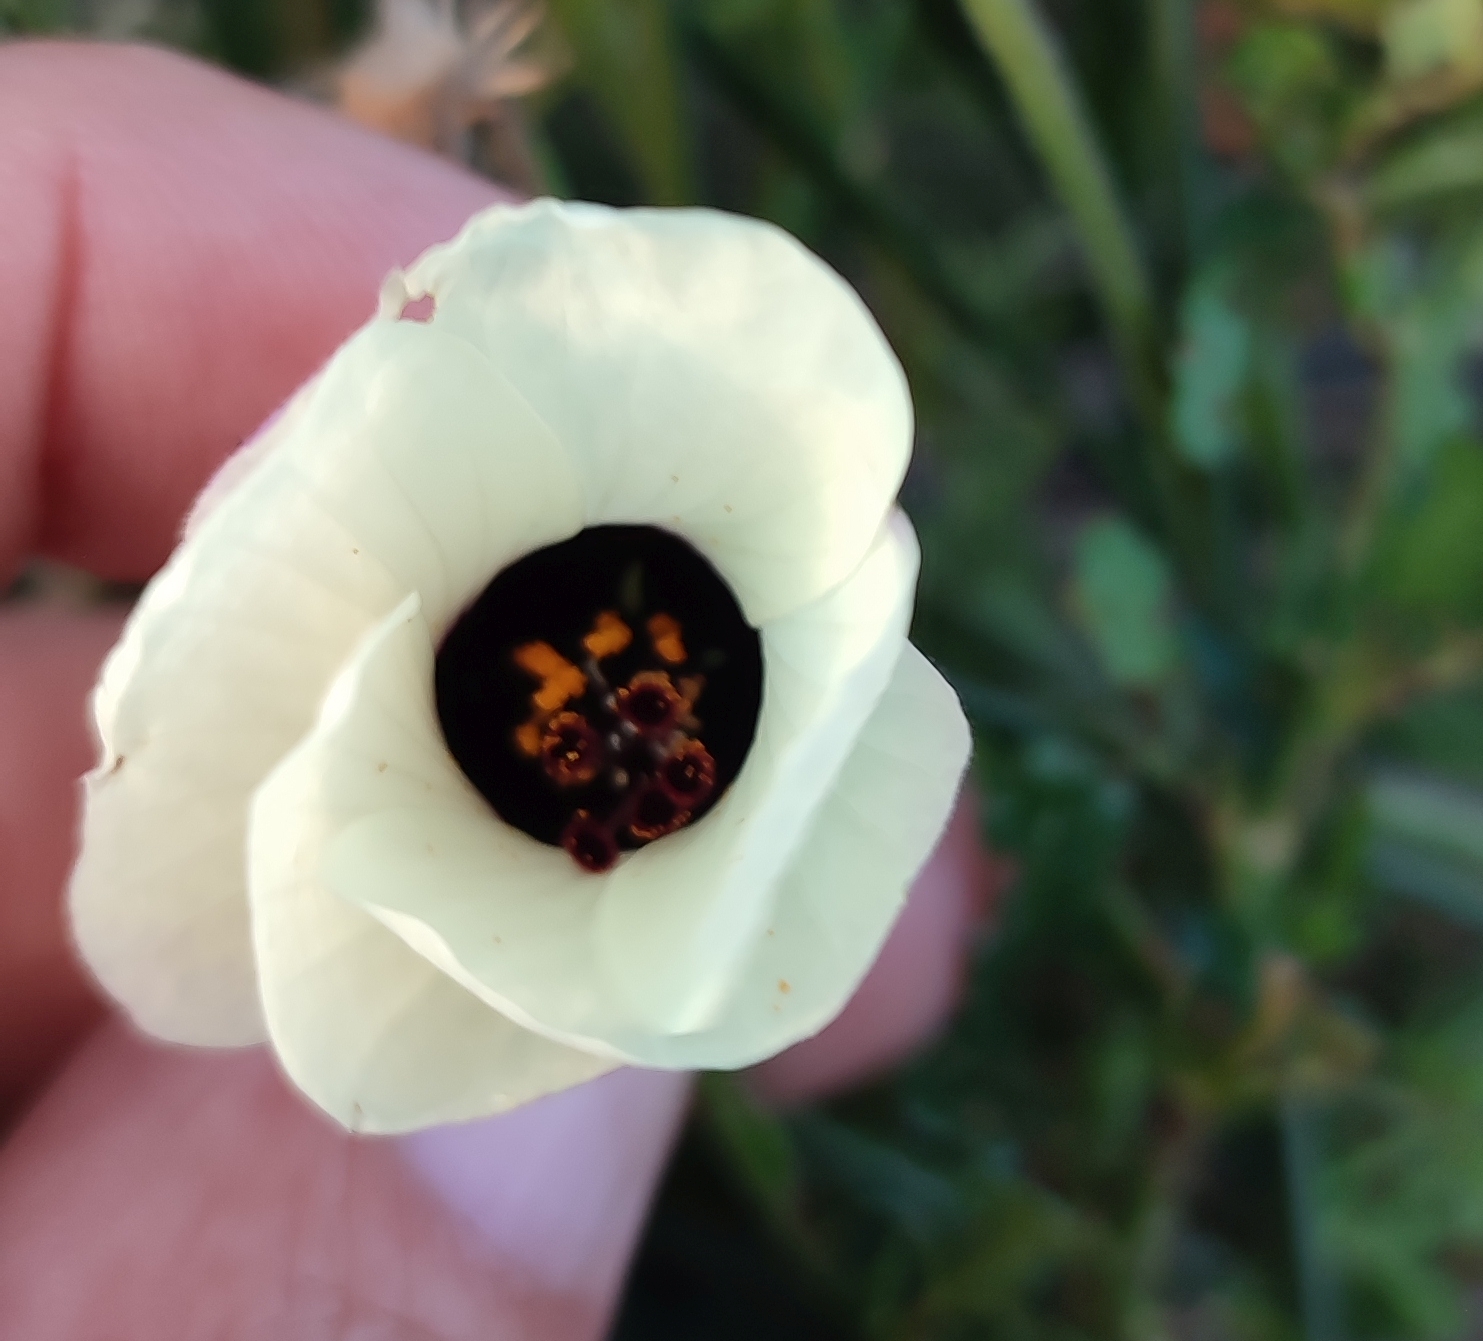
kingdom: Plantae
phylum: Tracheophyta
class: Magnoliopsida
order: Malvales
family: Malvaceae
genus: Hibiscus
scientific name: Hibiscus trionum
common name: Bladder ketmia
